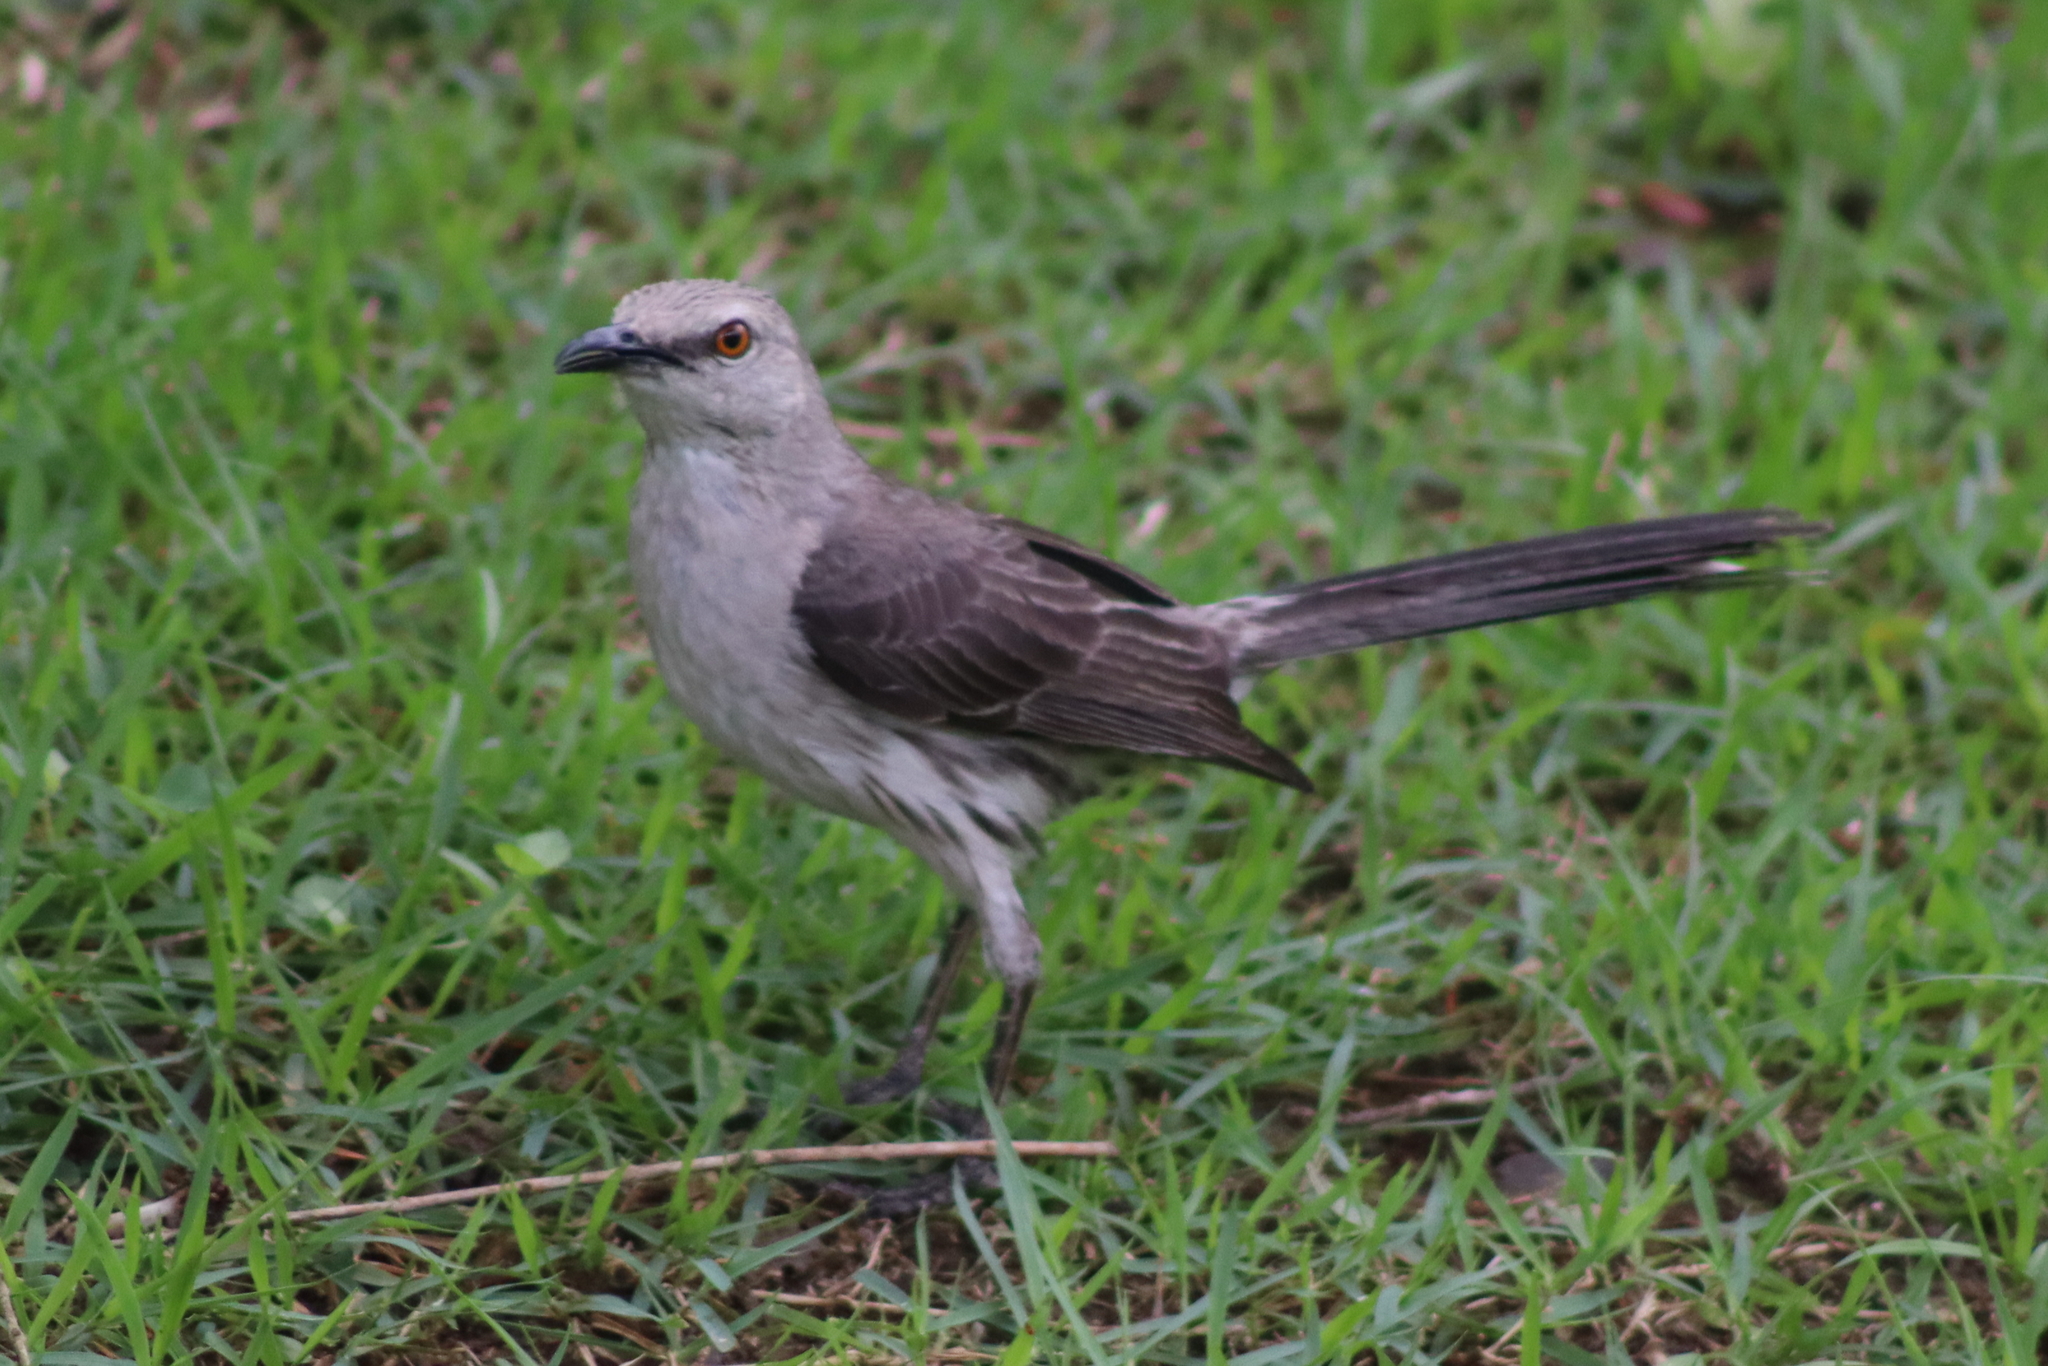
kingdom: Animalia
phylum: Chordata
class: Aves
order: Passeriformes
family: Mimidae
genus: Mimus
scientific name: Mimus gilvus
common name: Tropical mockingbird
